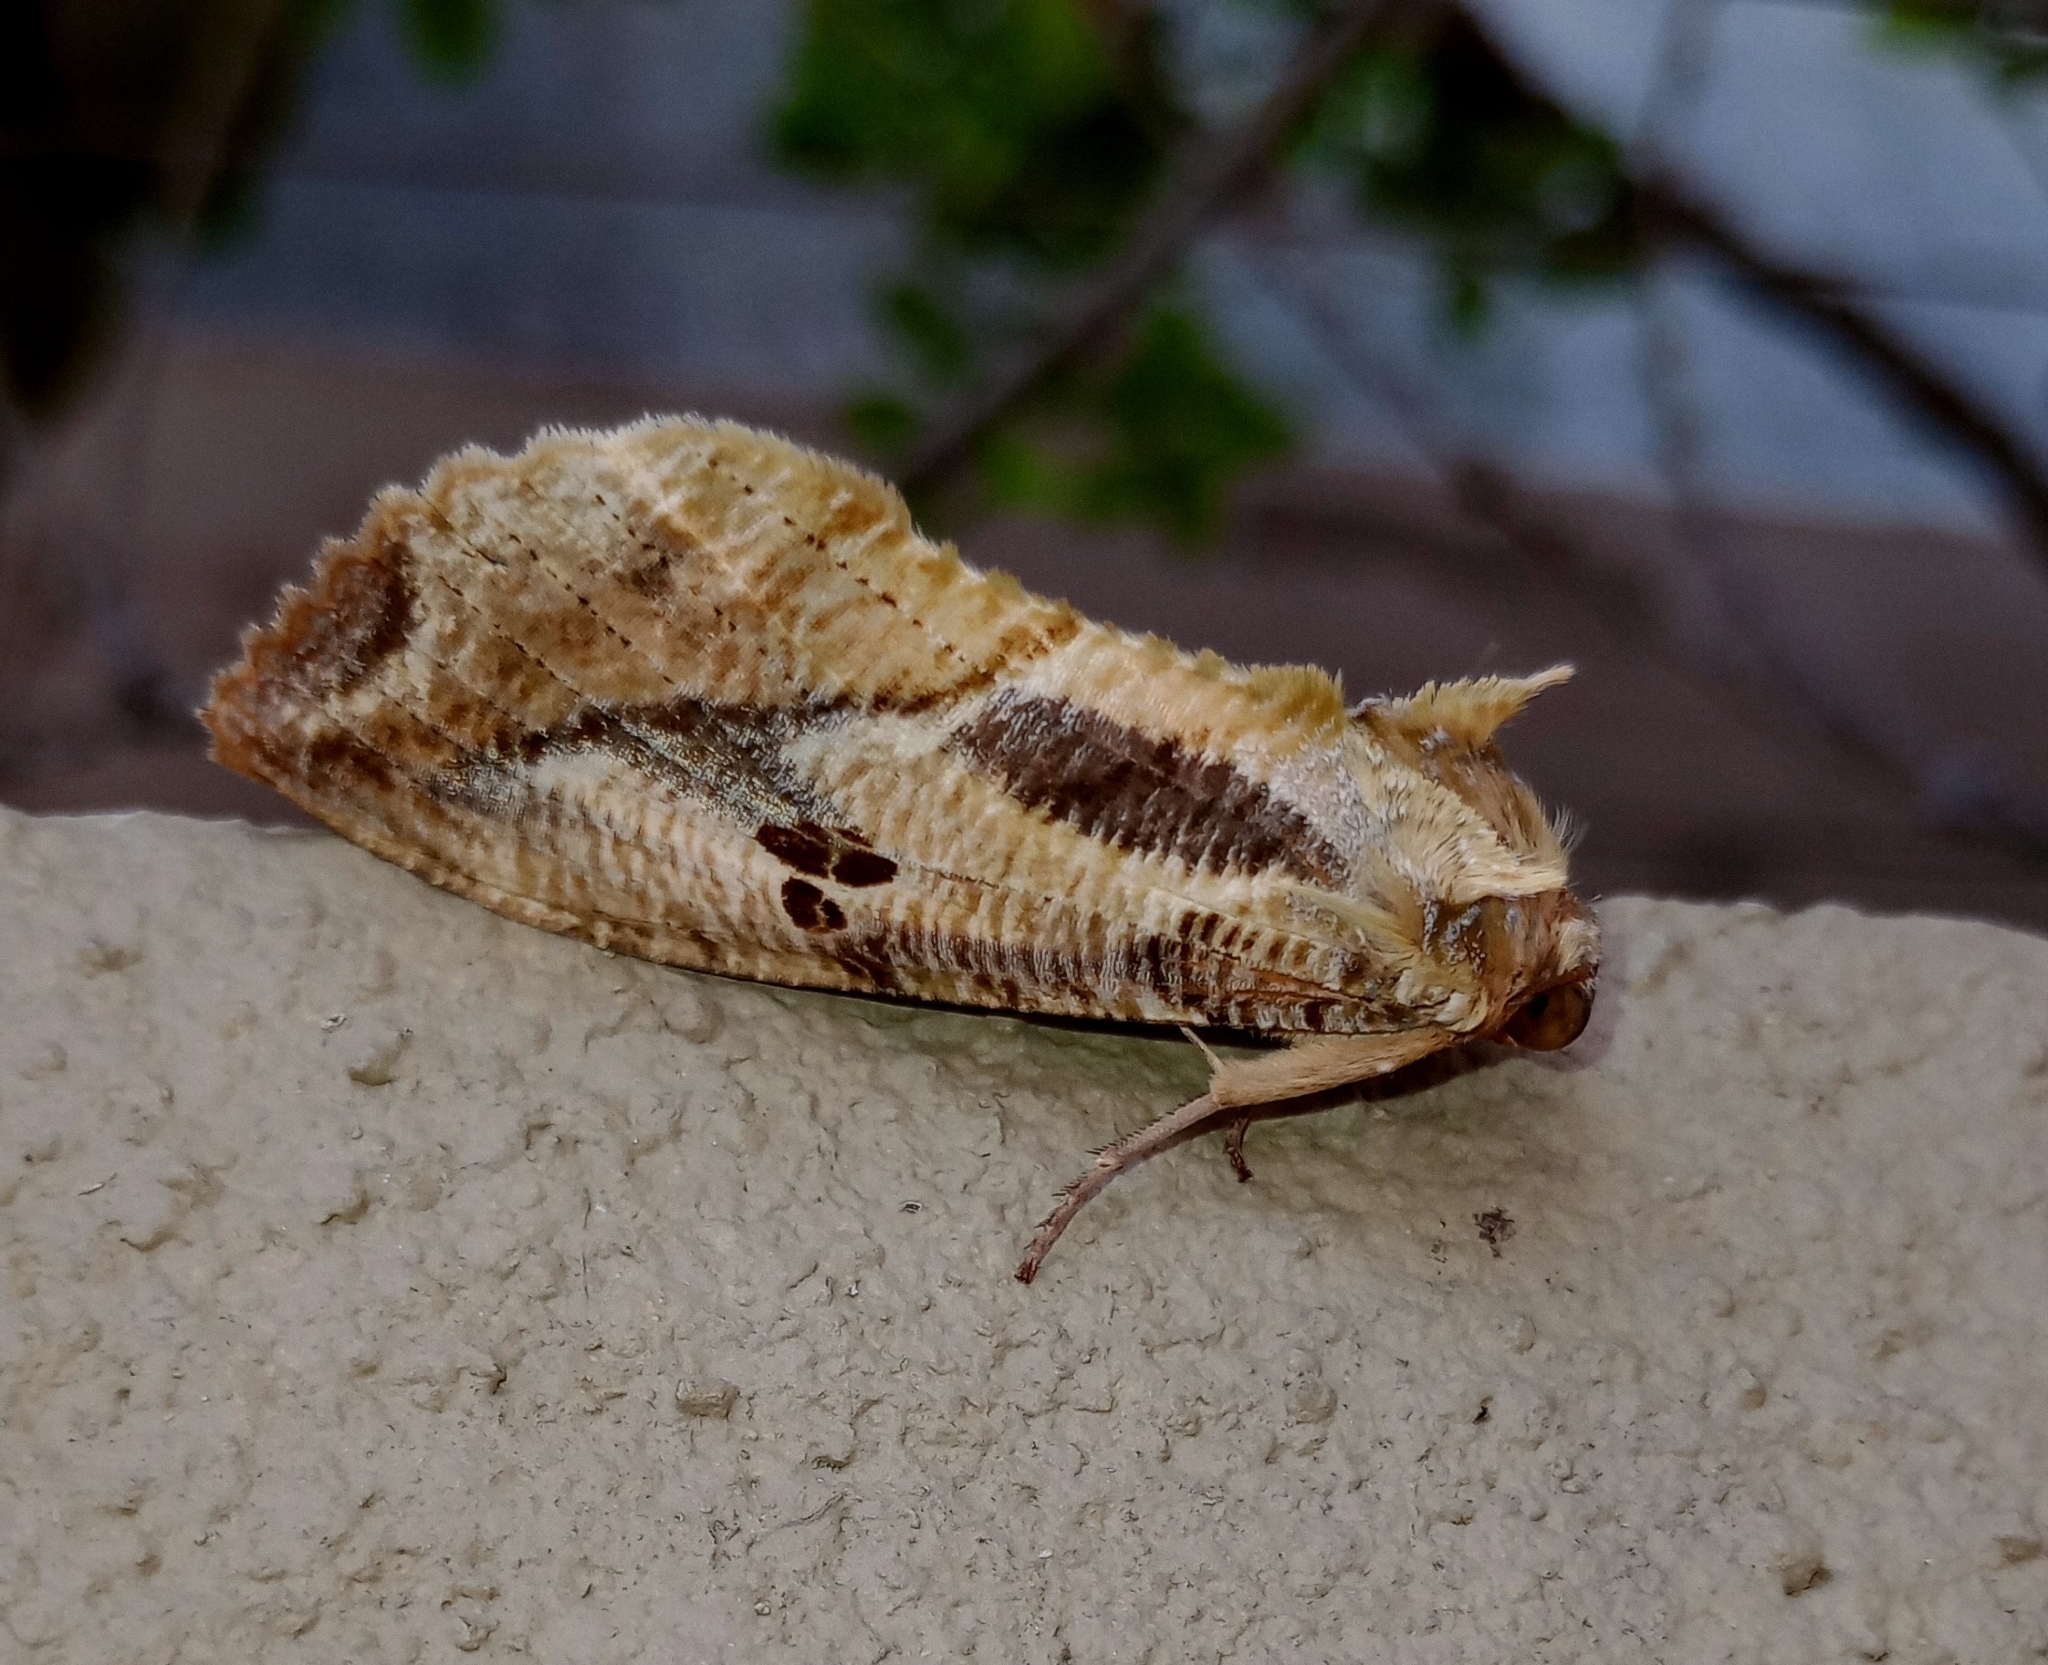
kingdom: Animalia
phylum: Arthropoda
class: Insecta
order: Lepidoptera
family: Erebidae
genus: Eudocima
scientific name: Eudocima materna
